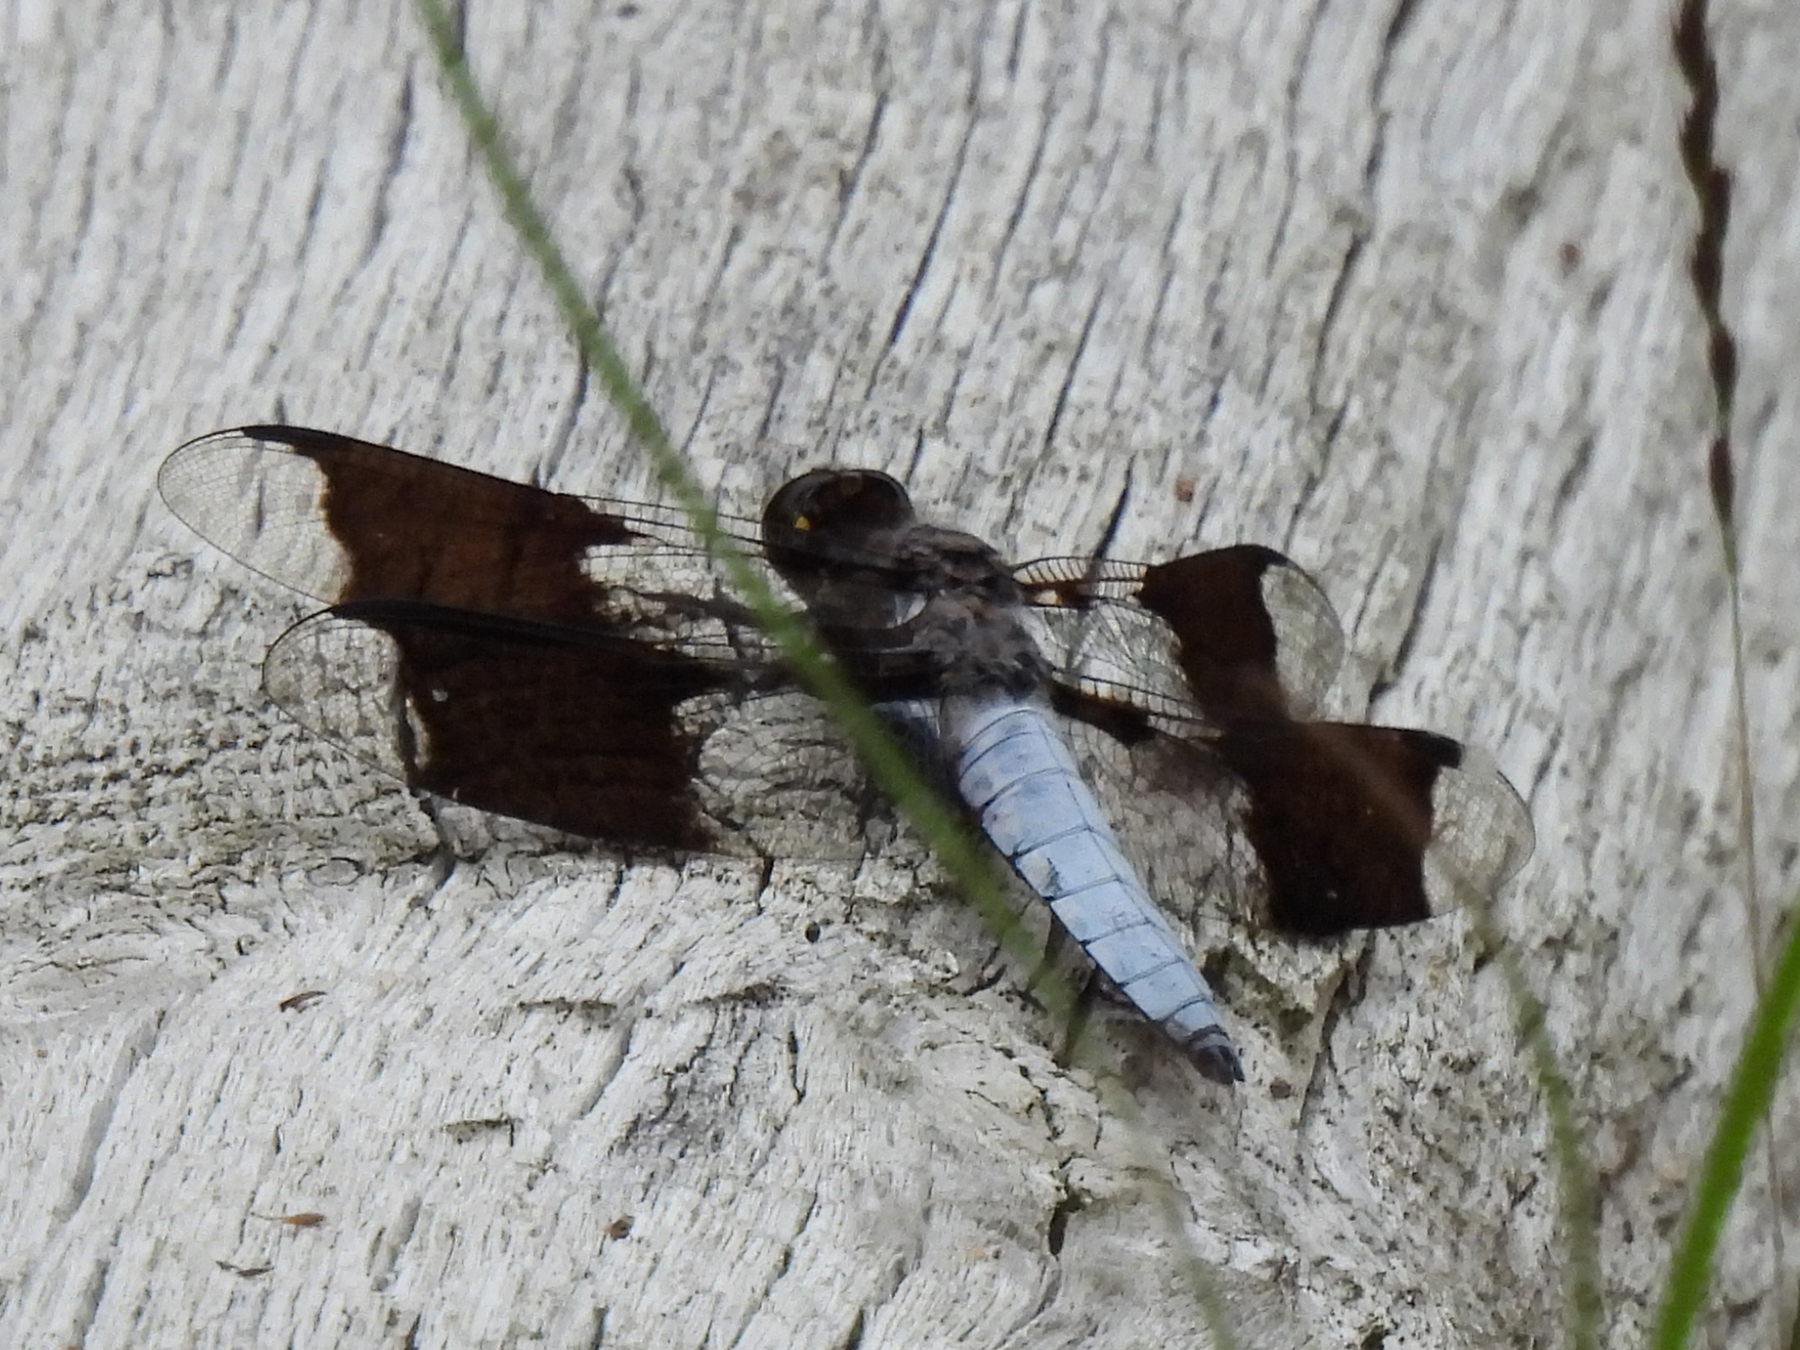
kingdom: Animalia
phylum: Arthropoda
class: Insecta
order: Odonata
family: Libellulidae
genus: Plathemis
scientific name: Plathemis lydia
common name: Common whitetail
